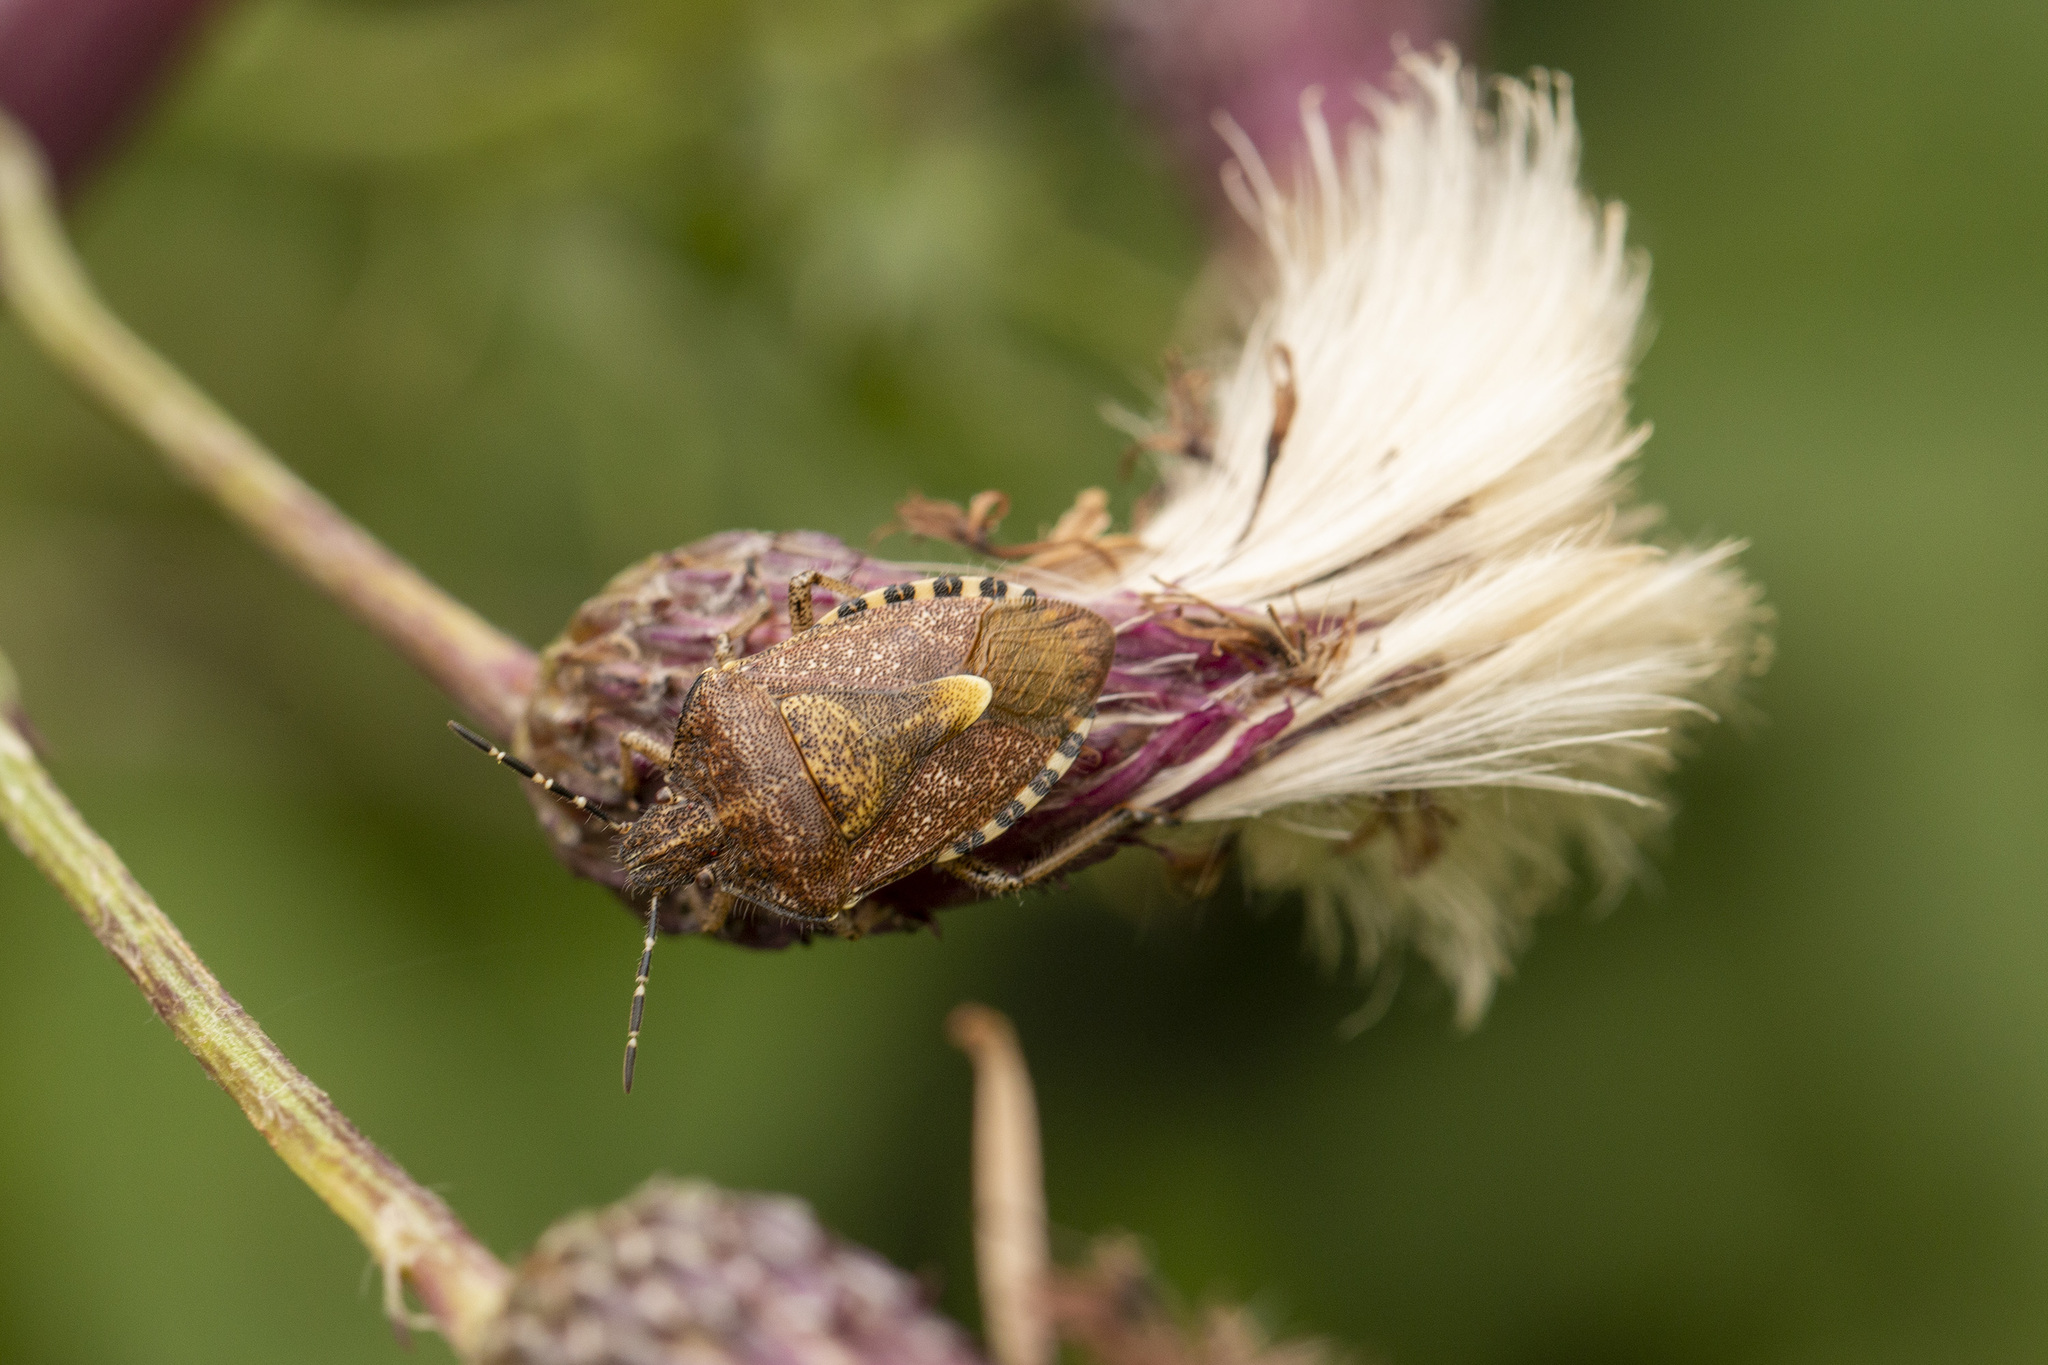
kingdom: Animalia
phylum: Arthropoda
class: Insecta
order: Hemiptera
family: Pentatomidae
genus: Dolycoris
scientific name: Dolycoris baccarum
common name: Sloe bug
